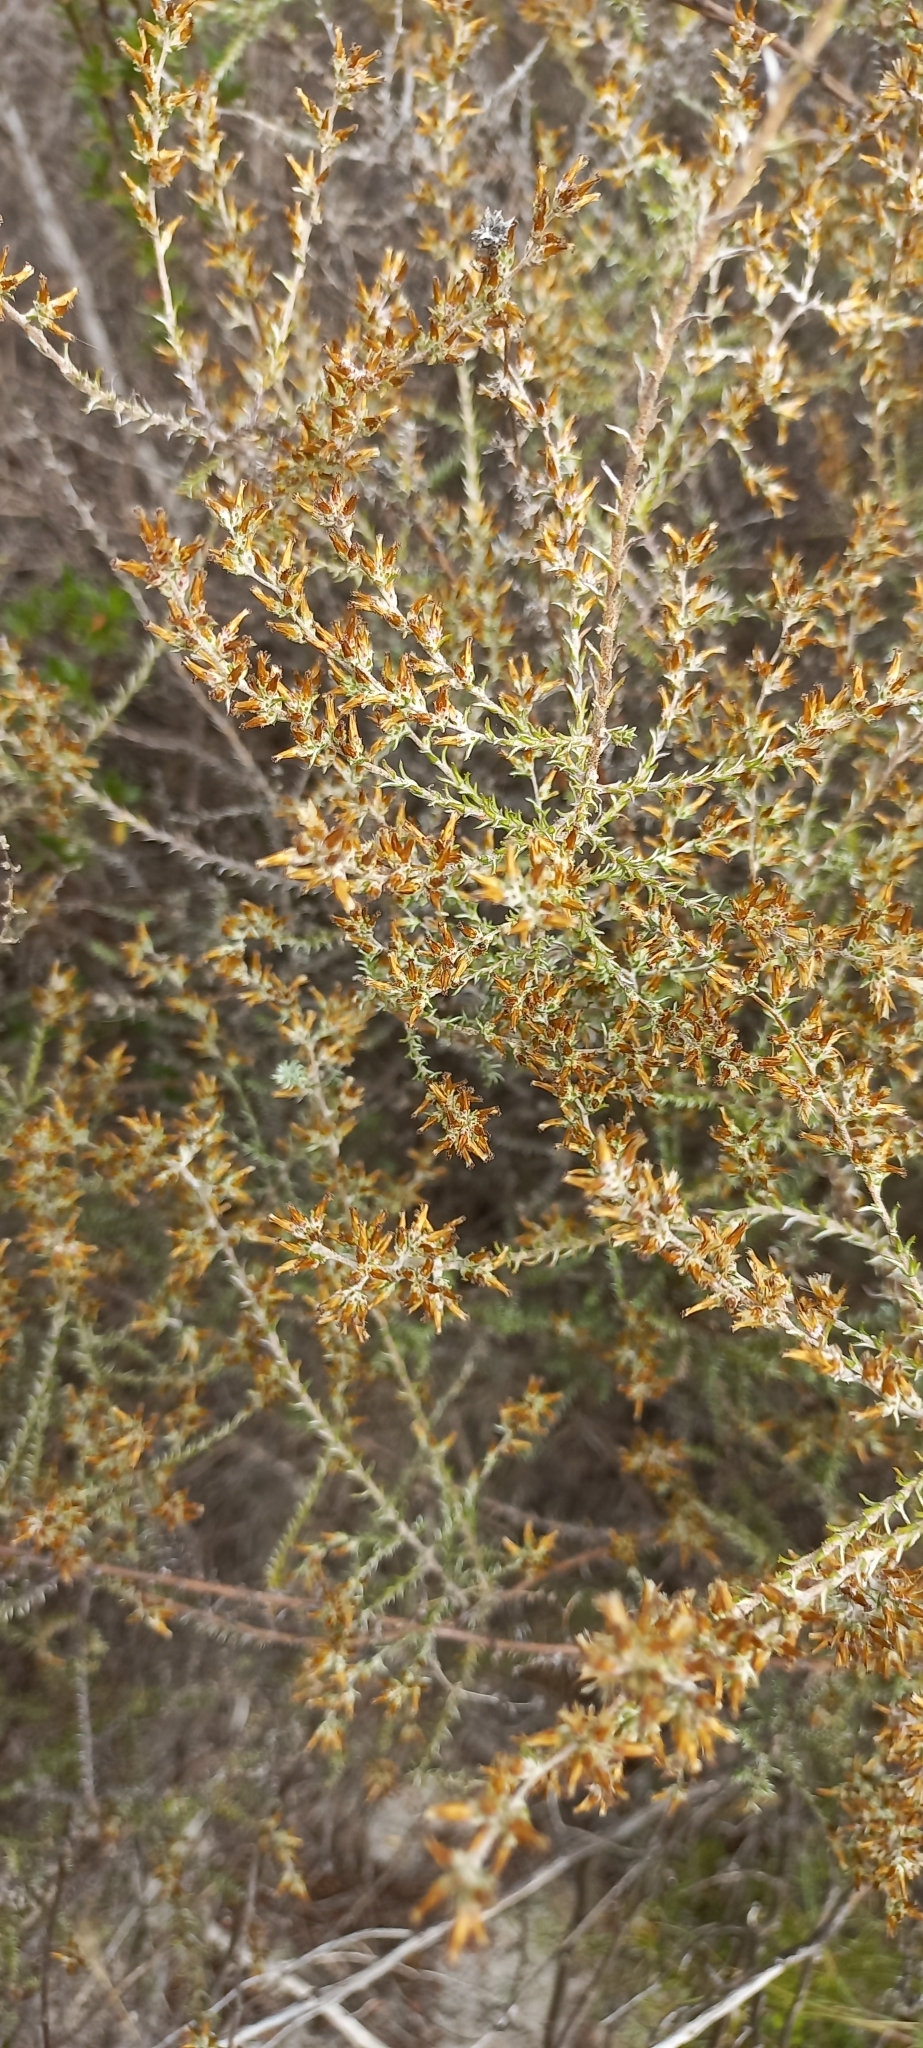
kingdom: Plantae
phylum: Tracheophyta
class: Magnoliopsida
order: Asterales
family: Asteraceae
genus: Myrovernix
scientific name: Myrovernix scaber
